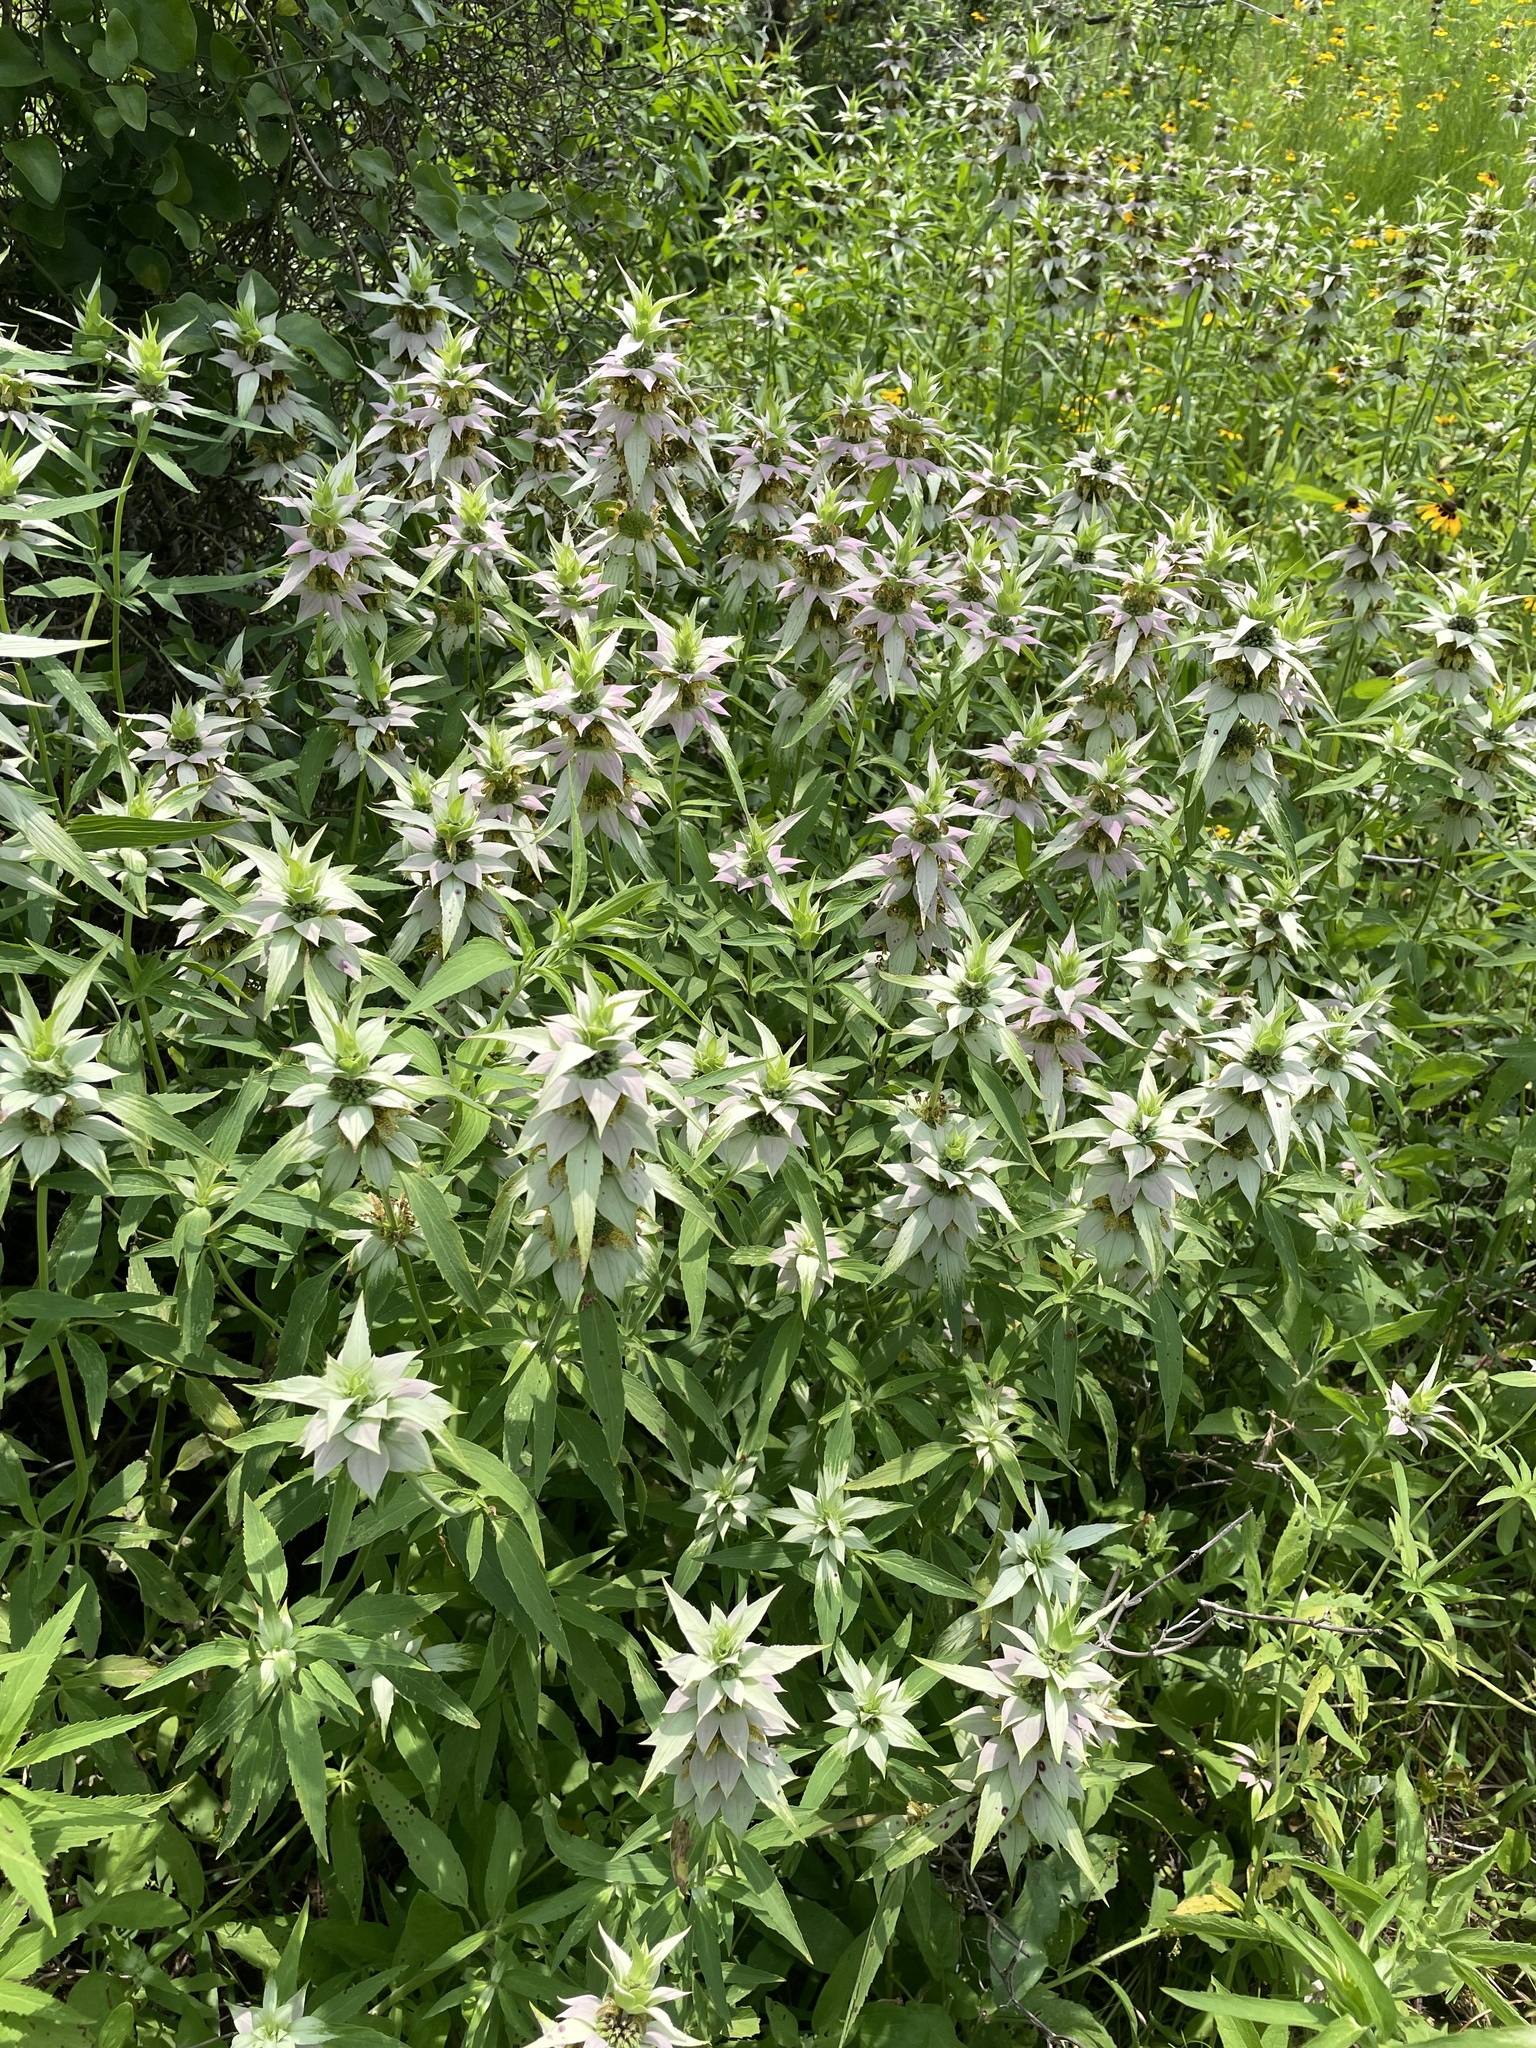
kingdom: Plantae
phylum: Tracheophyta
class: Magnoliopsida
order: Lamiales
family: Lamiaceae
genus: Monarda
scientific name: Monarda punctata
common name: Dotted monarda
